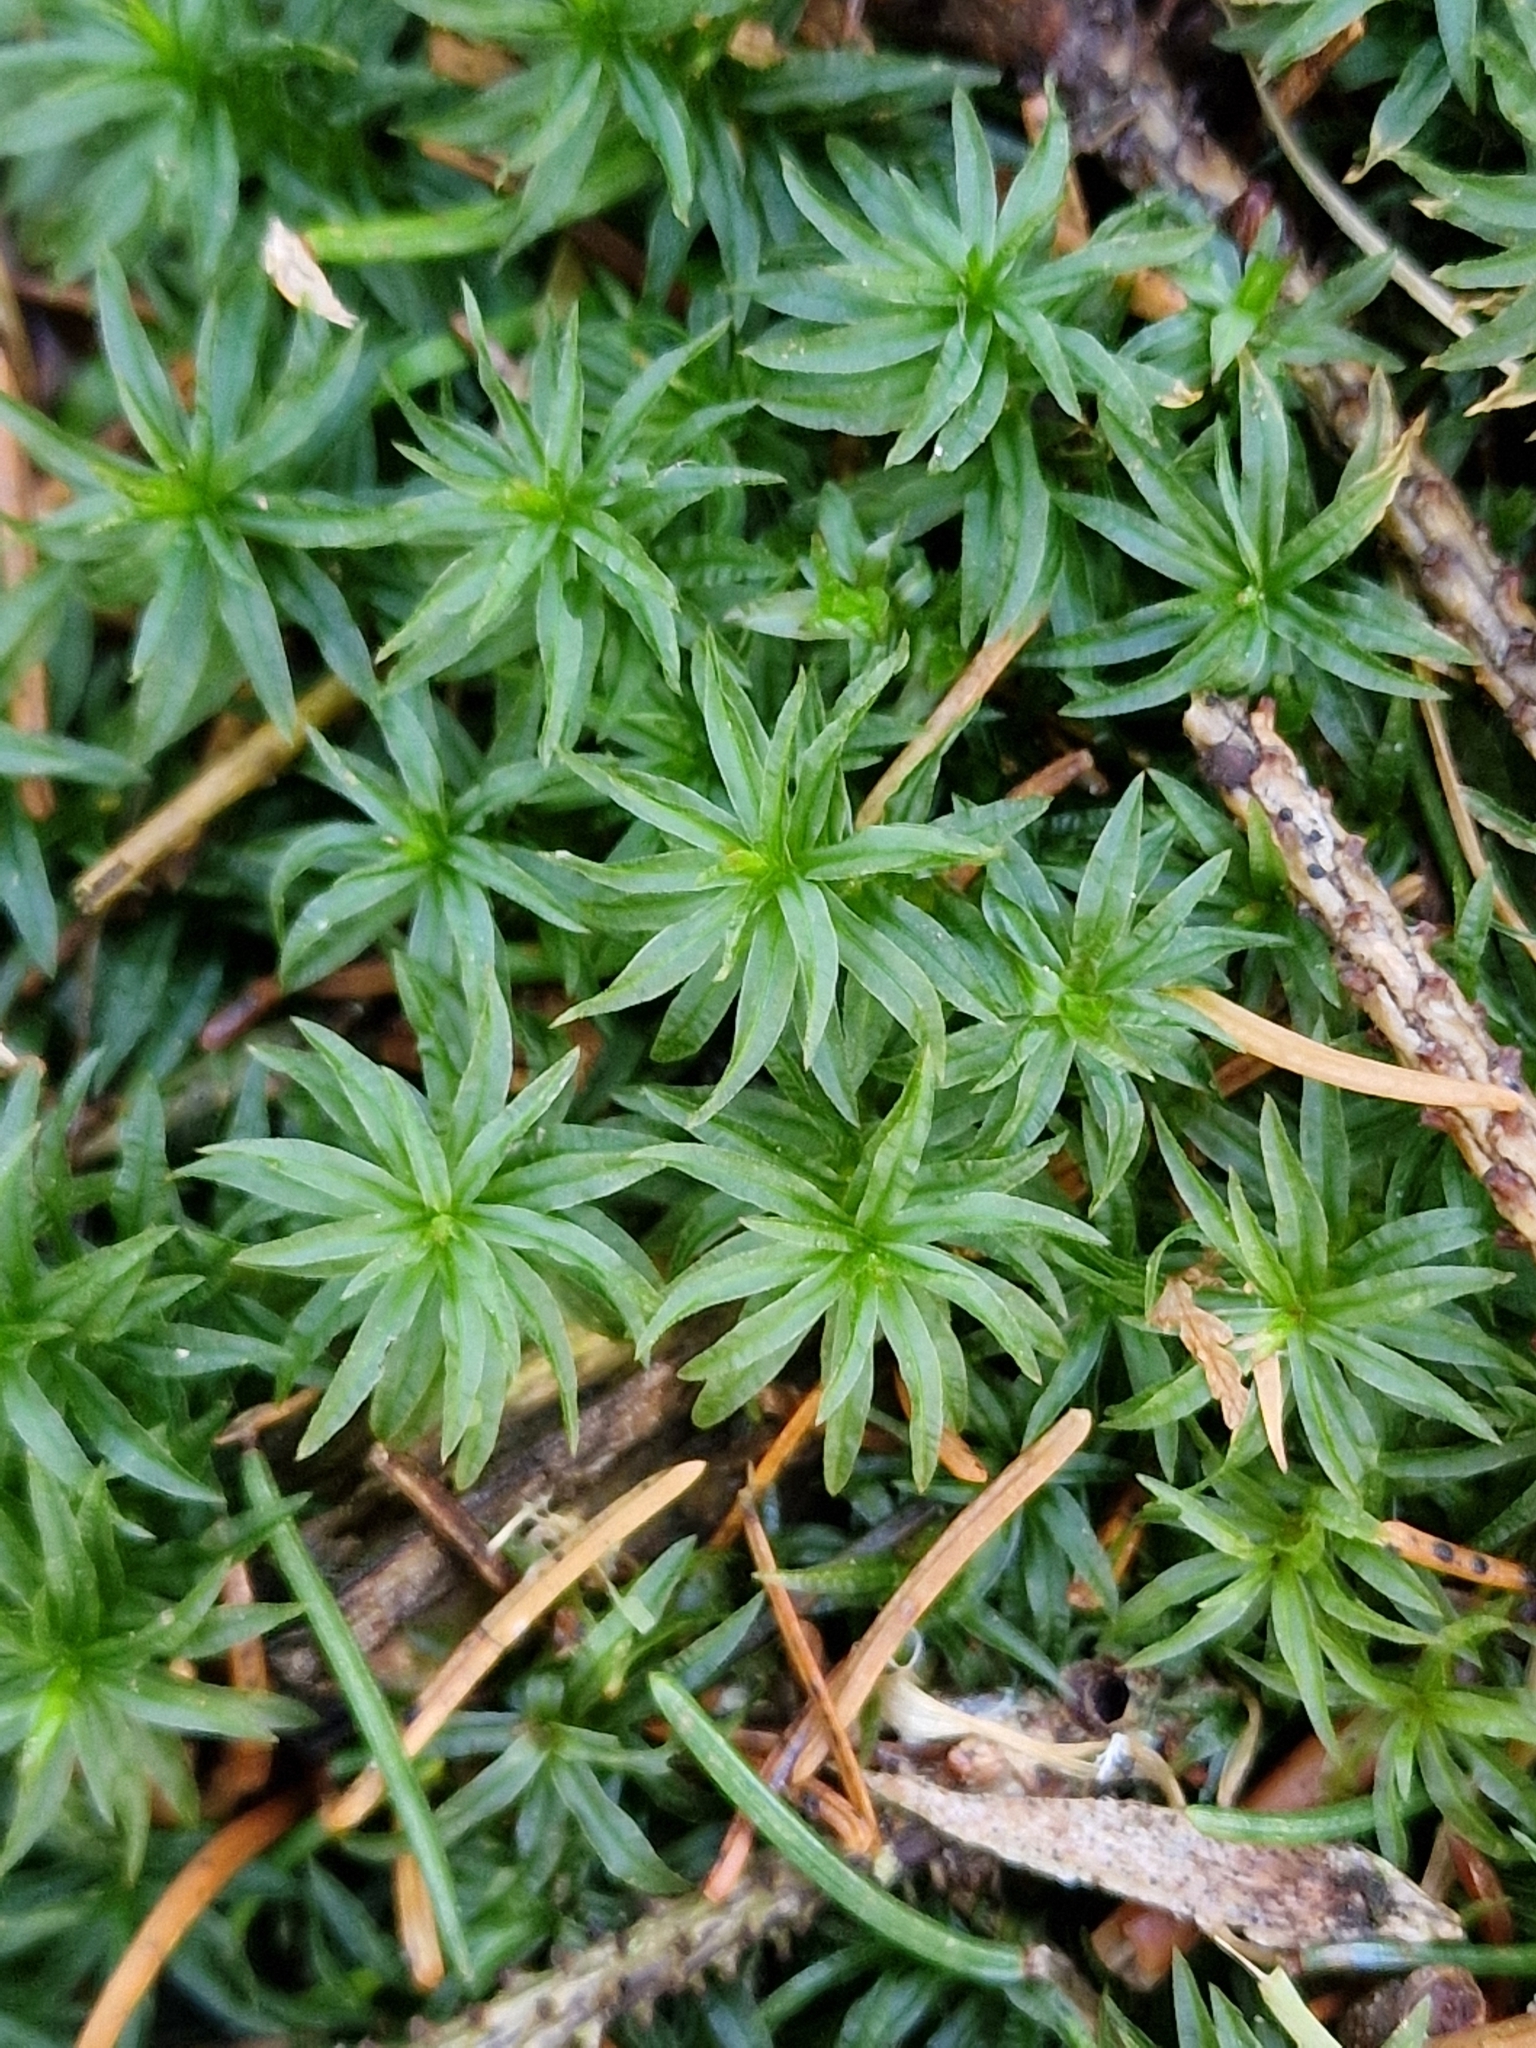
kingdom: Plantae
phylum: Bryophyta
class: Polytrichopsida
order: Polytrichales
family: Polytrichaceae
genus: Atrichum
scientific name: Atrichum undulatum
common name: Common smoothcap
